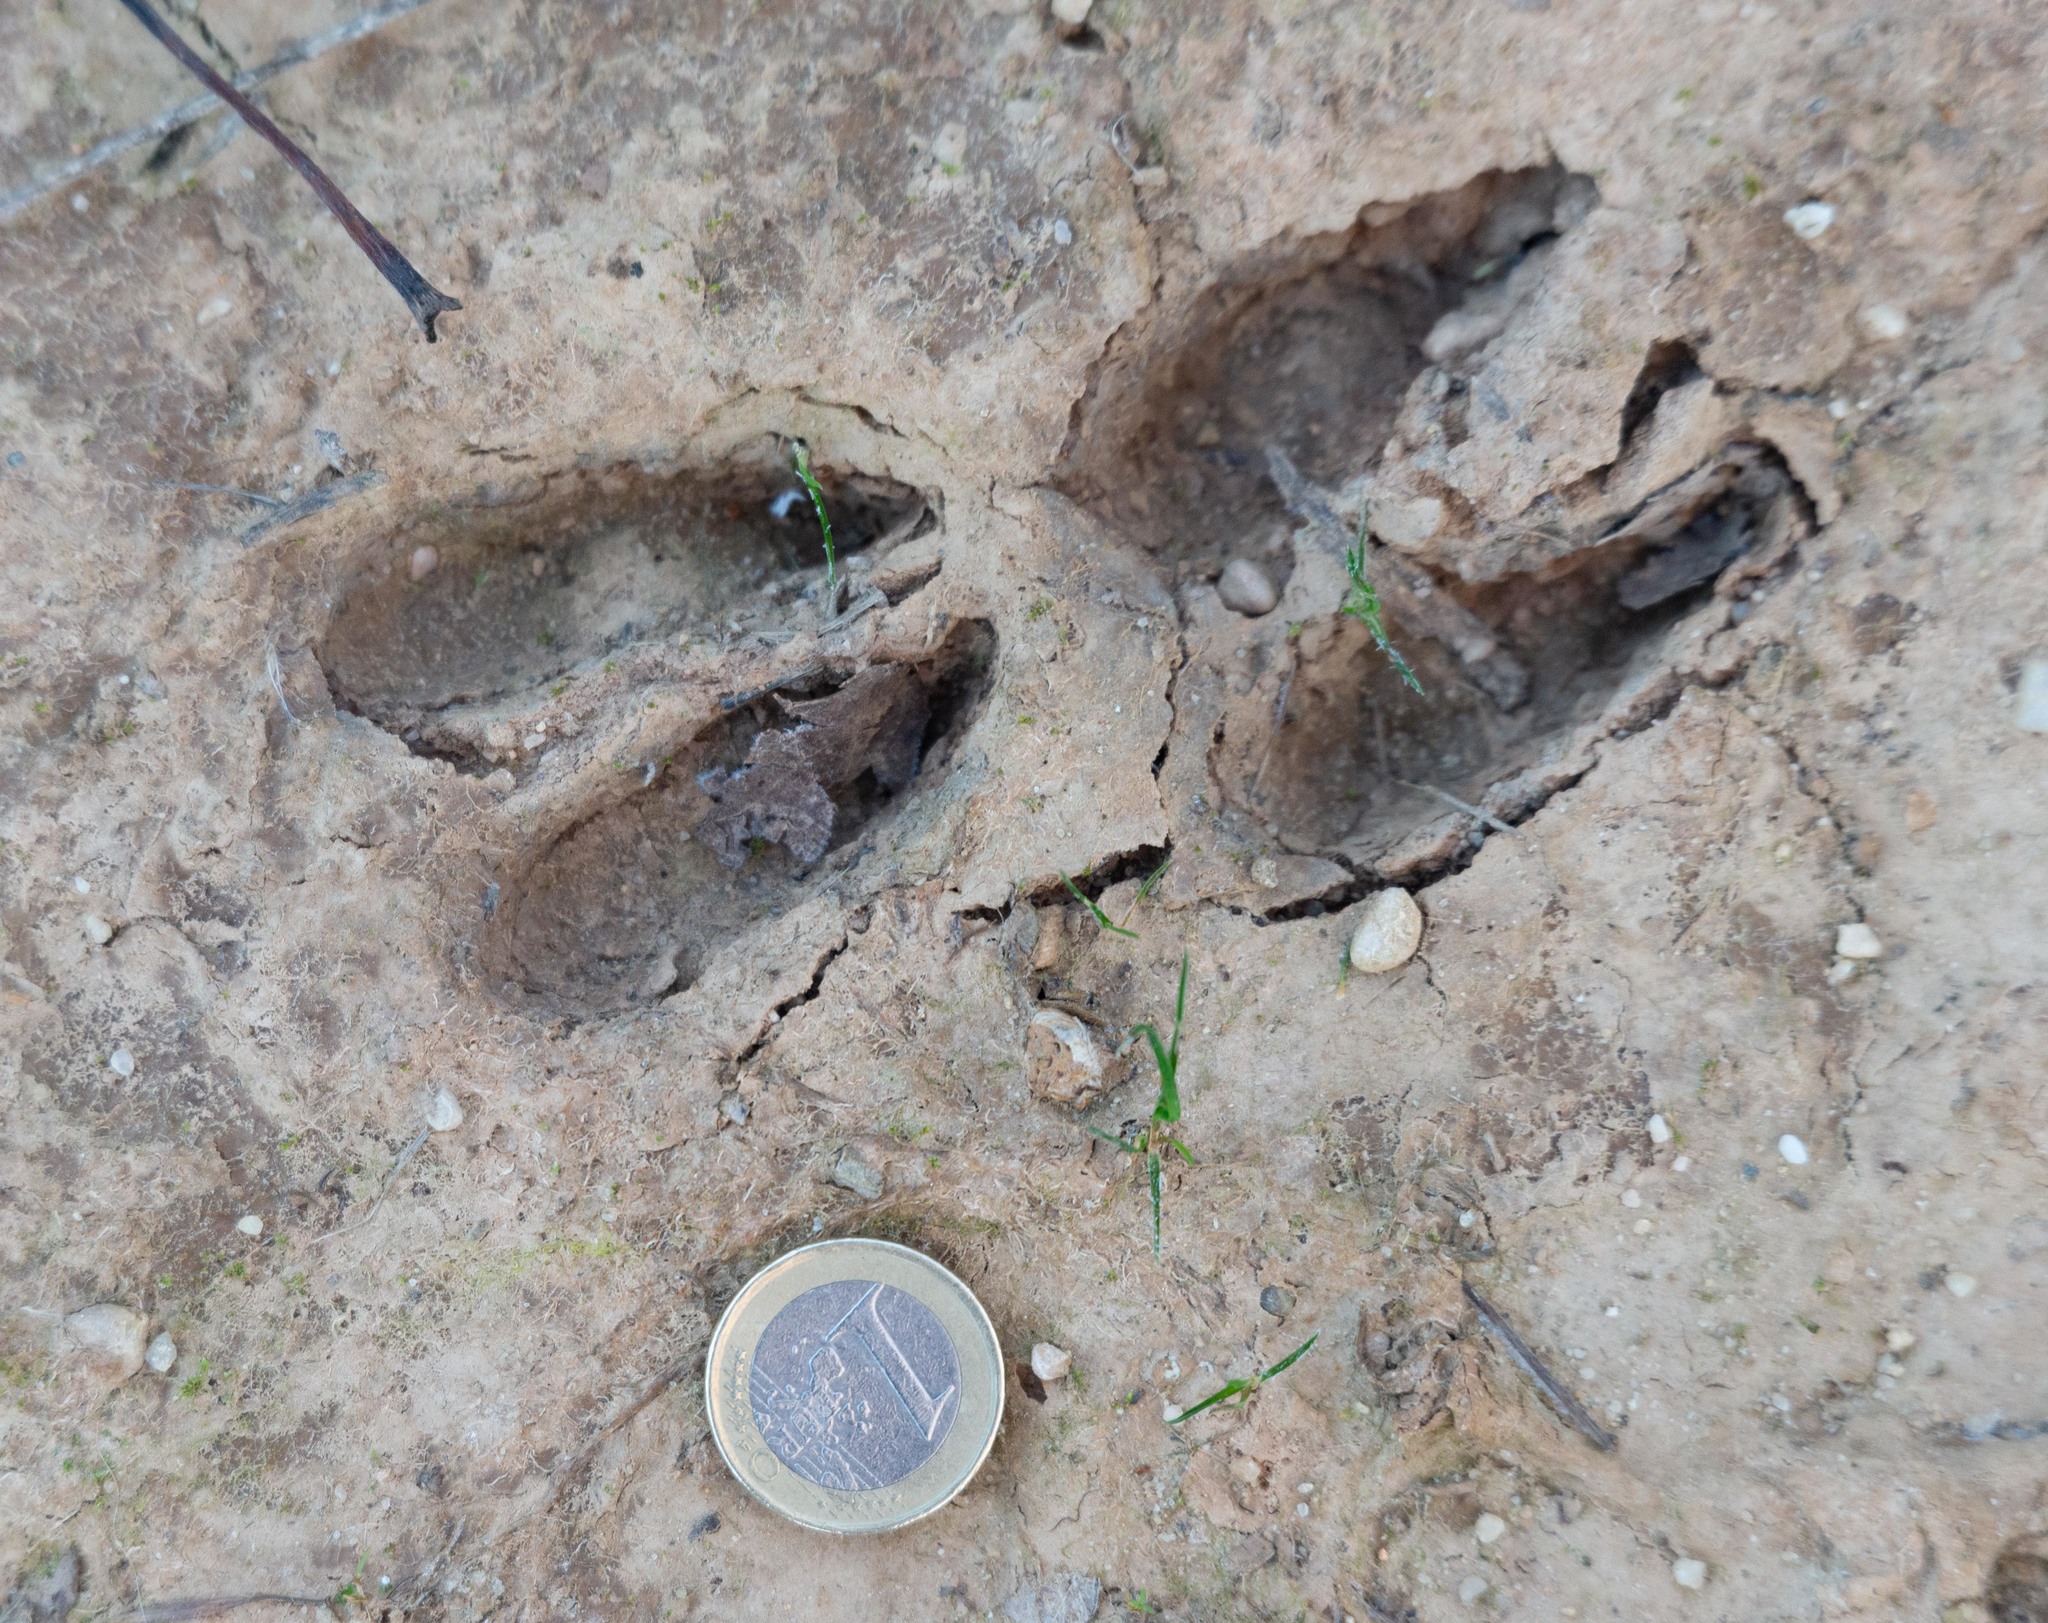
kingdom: Animalia
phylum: Chordata
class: Mammalia
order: Artiodactyla
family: Cervidae
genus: Capreolus
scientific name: Capreolus capreolus
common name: Western roe deer
